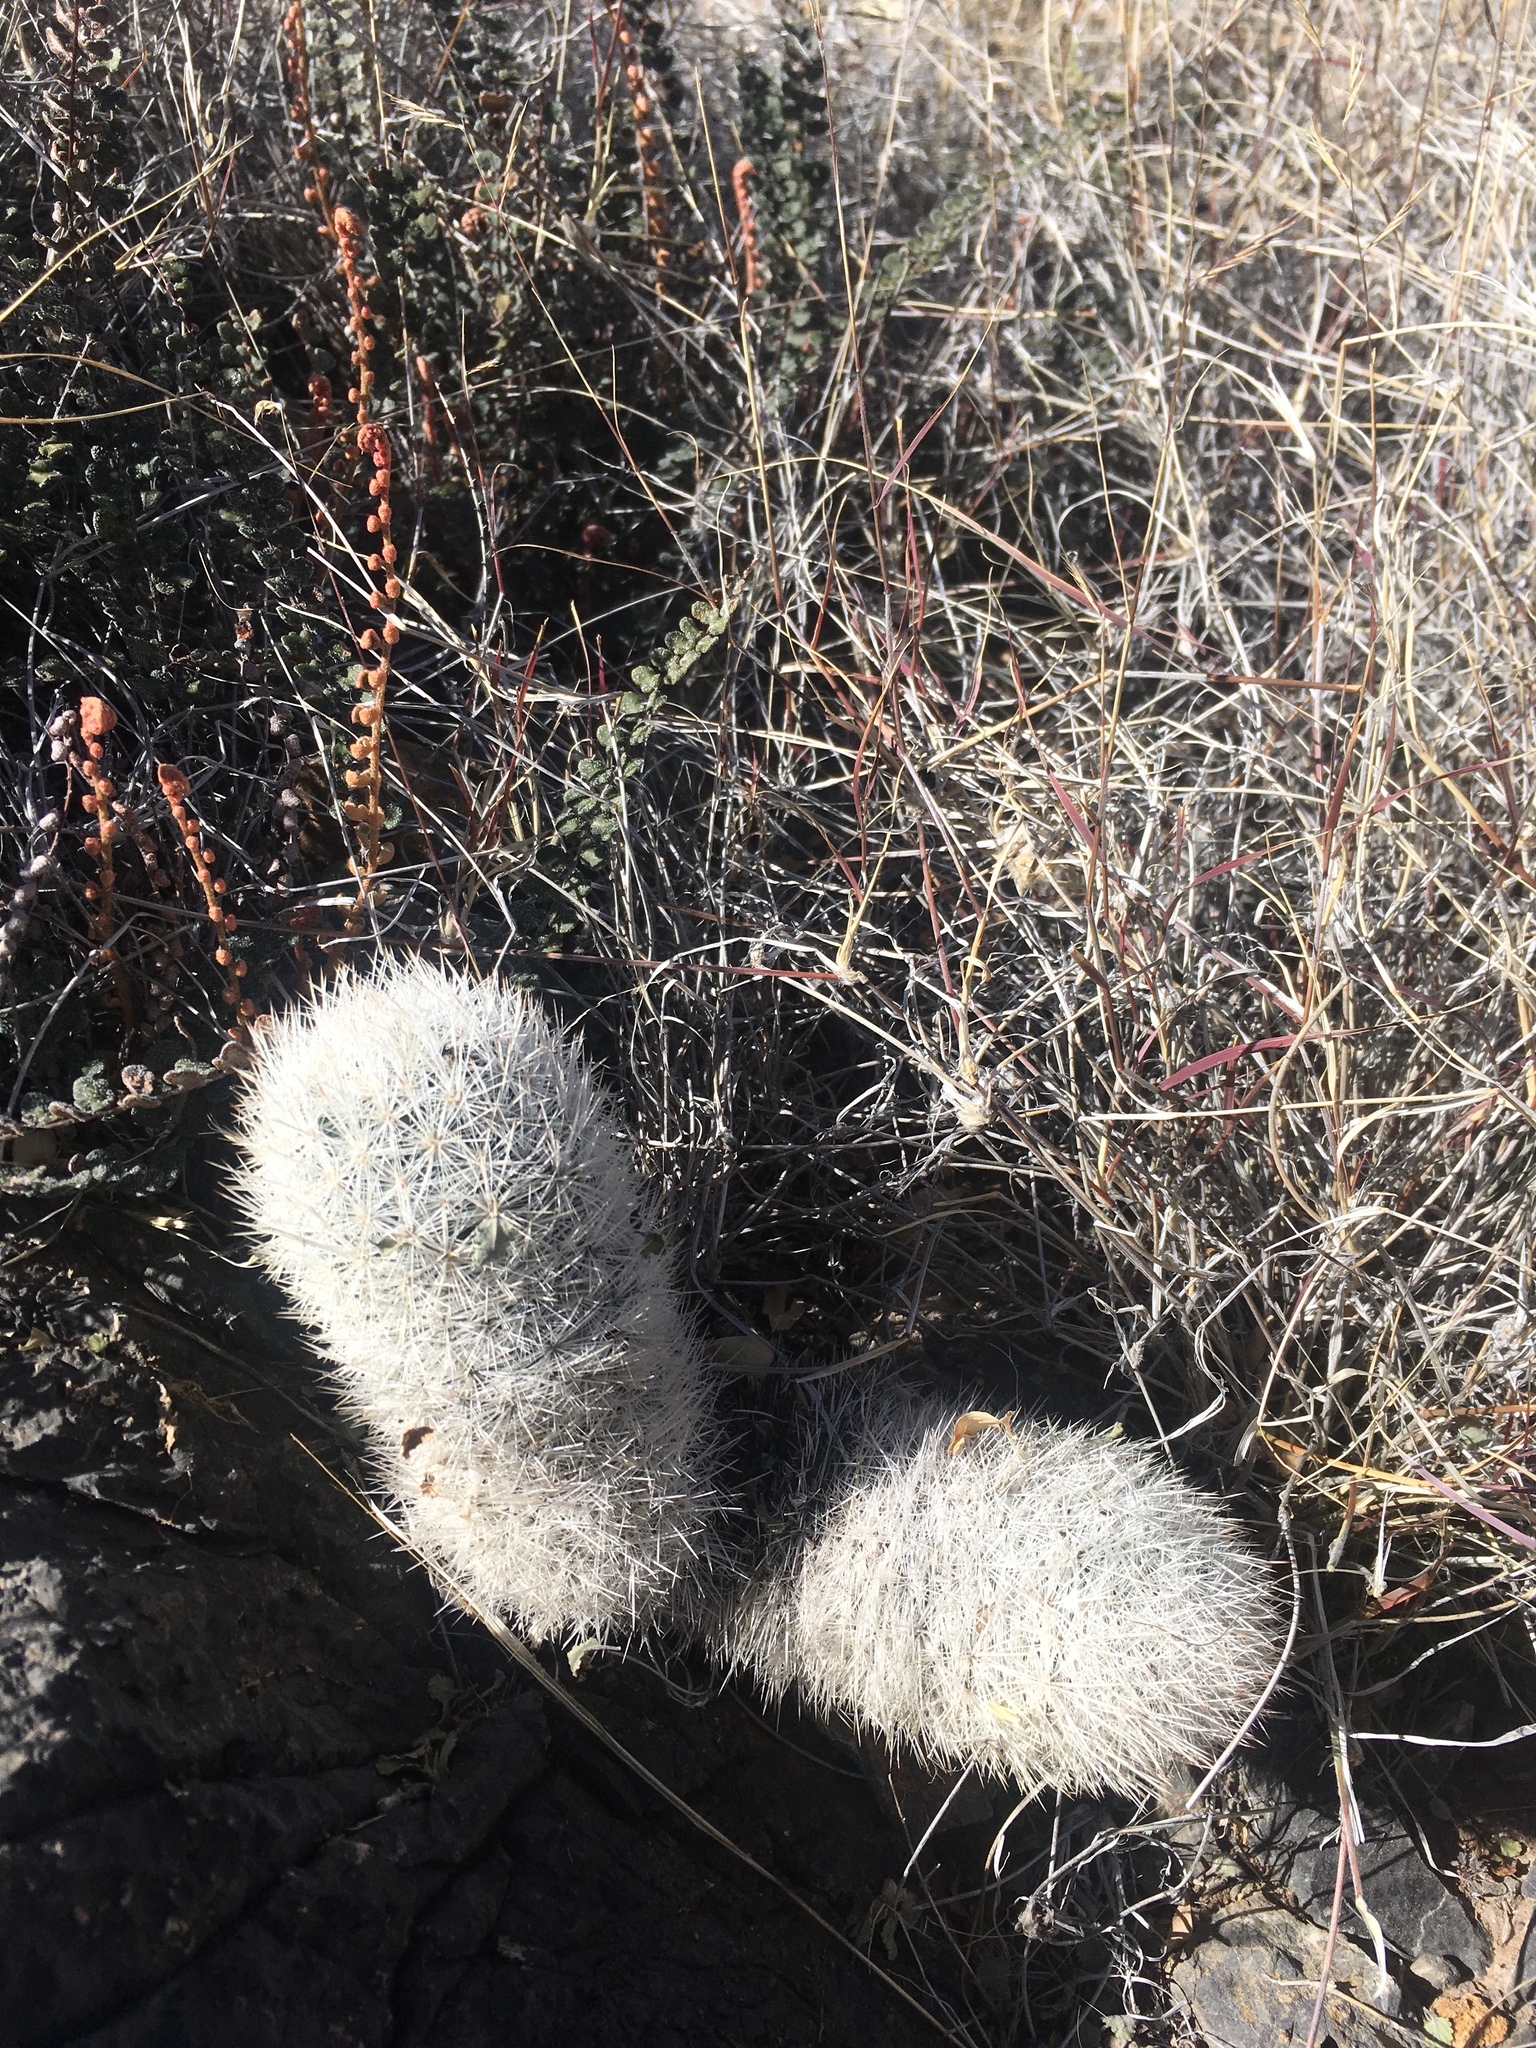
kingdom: Plantae
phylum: Tracheophyta
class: Magnoliopsida
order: Caryophyllales
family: Cactaceae
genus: Pelecyphora
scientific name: Pelecyphora sneedii
